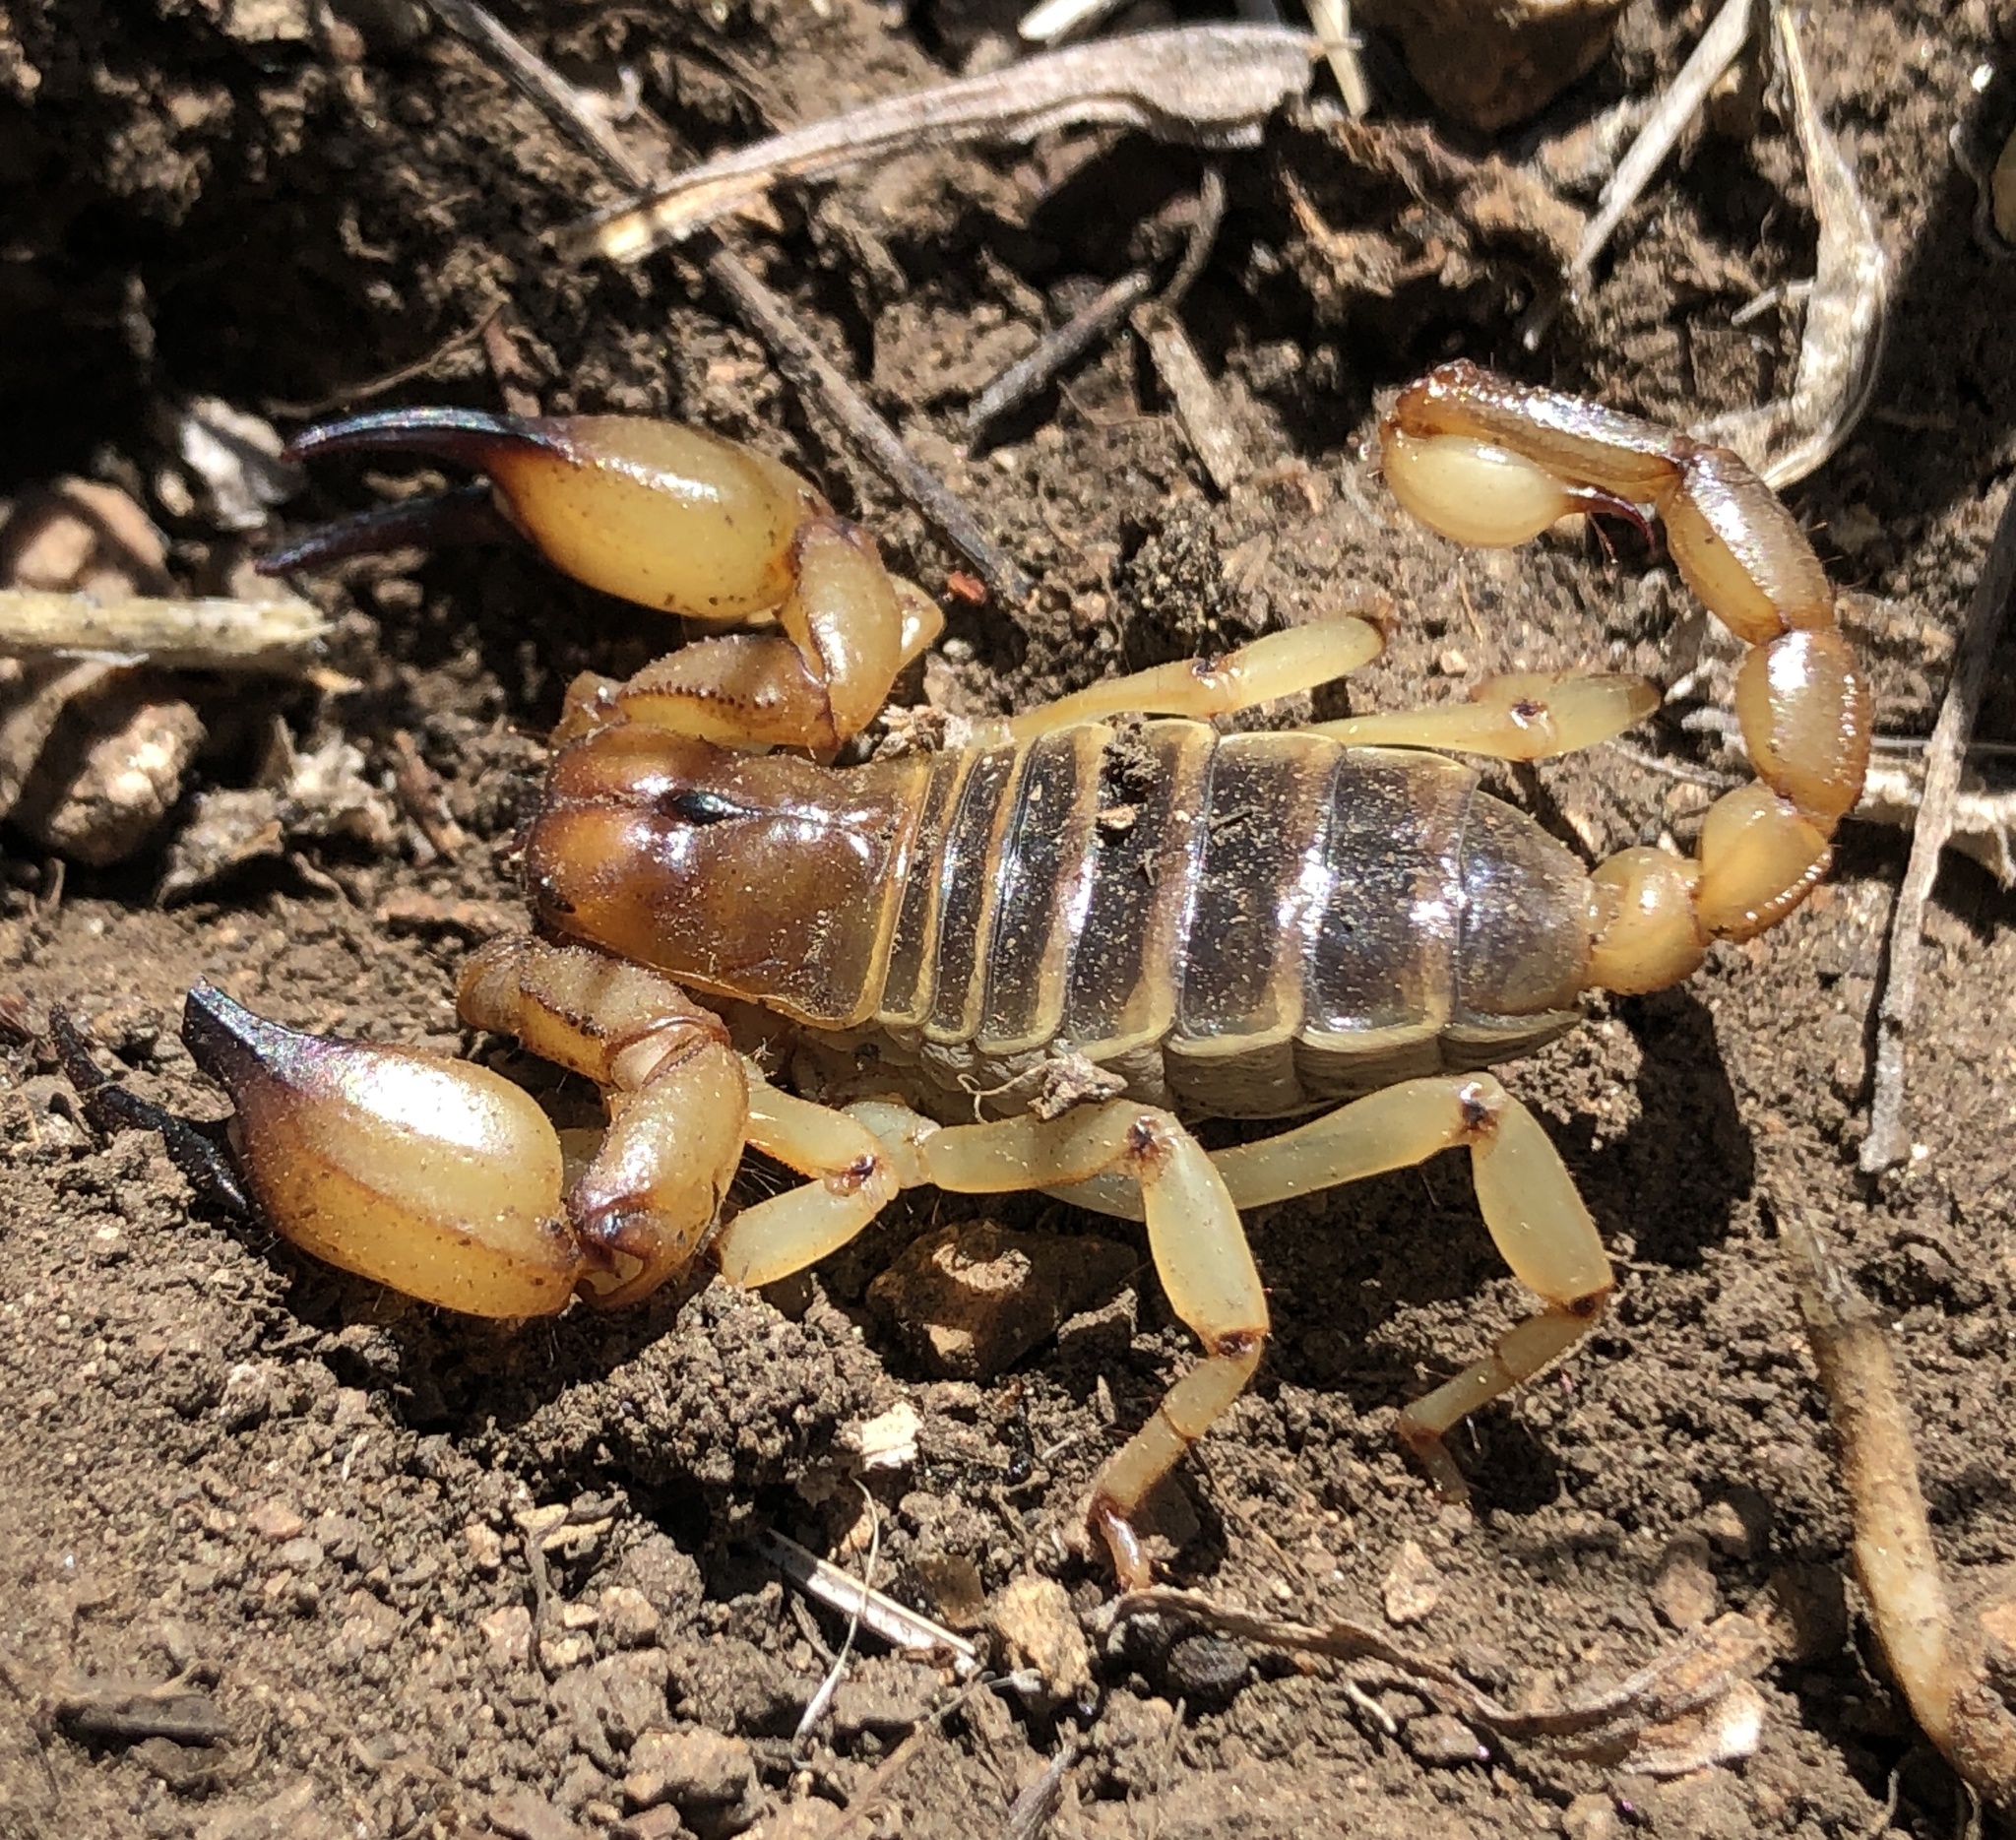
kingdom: Animalia
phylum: Arthropoda
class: Arachnida
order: Scorpiones
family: Chactidae
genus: Anuroctonus
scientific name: Anuroctonus pococki
